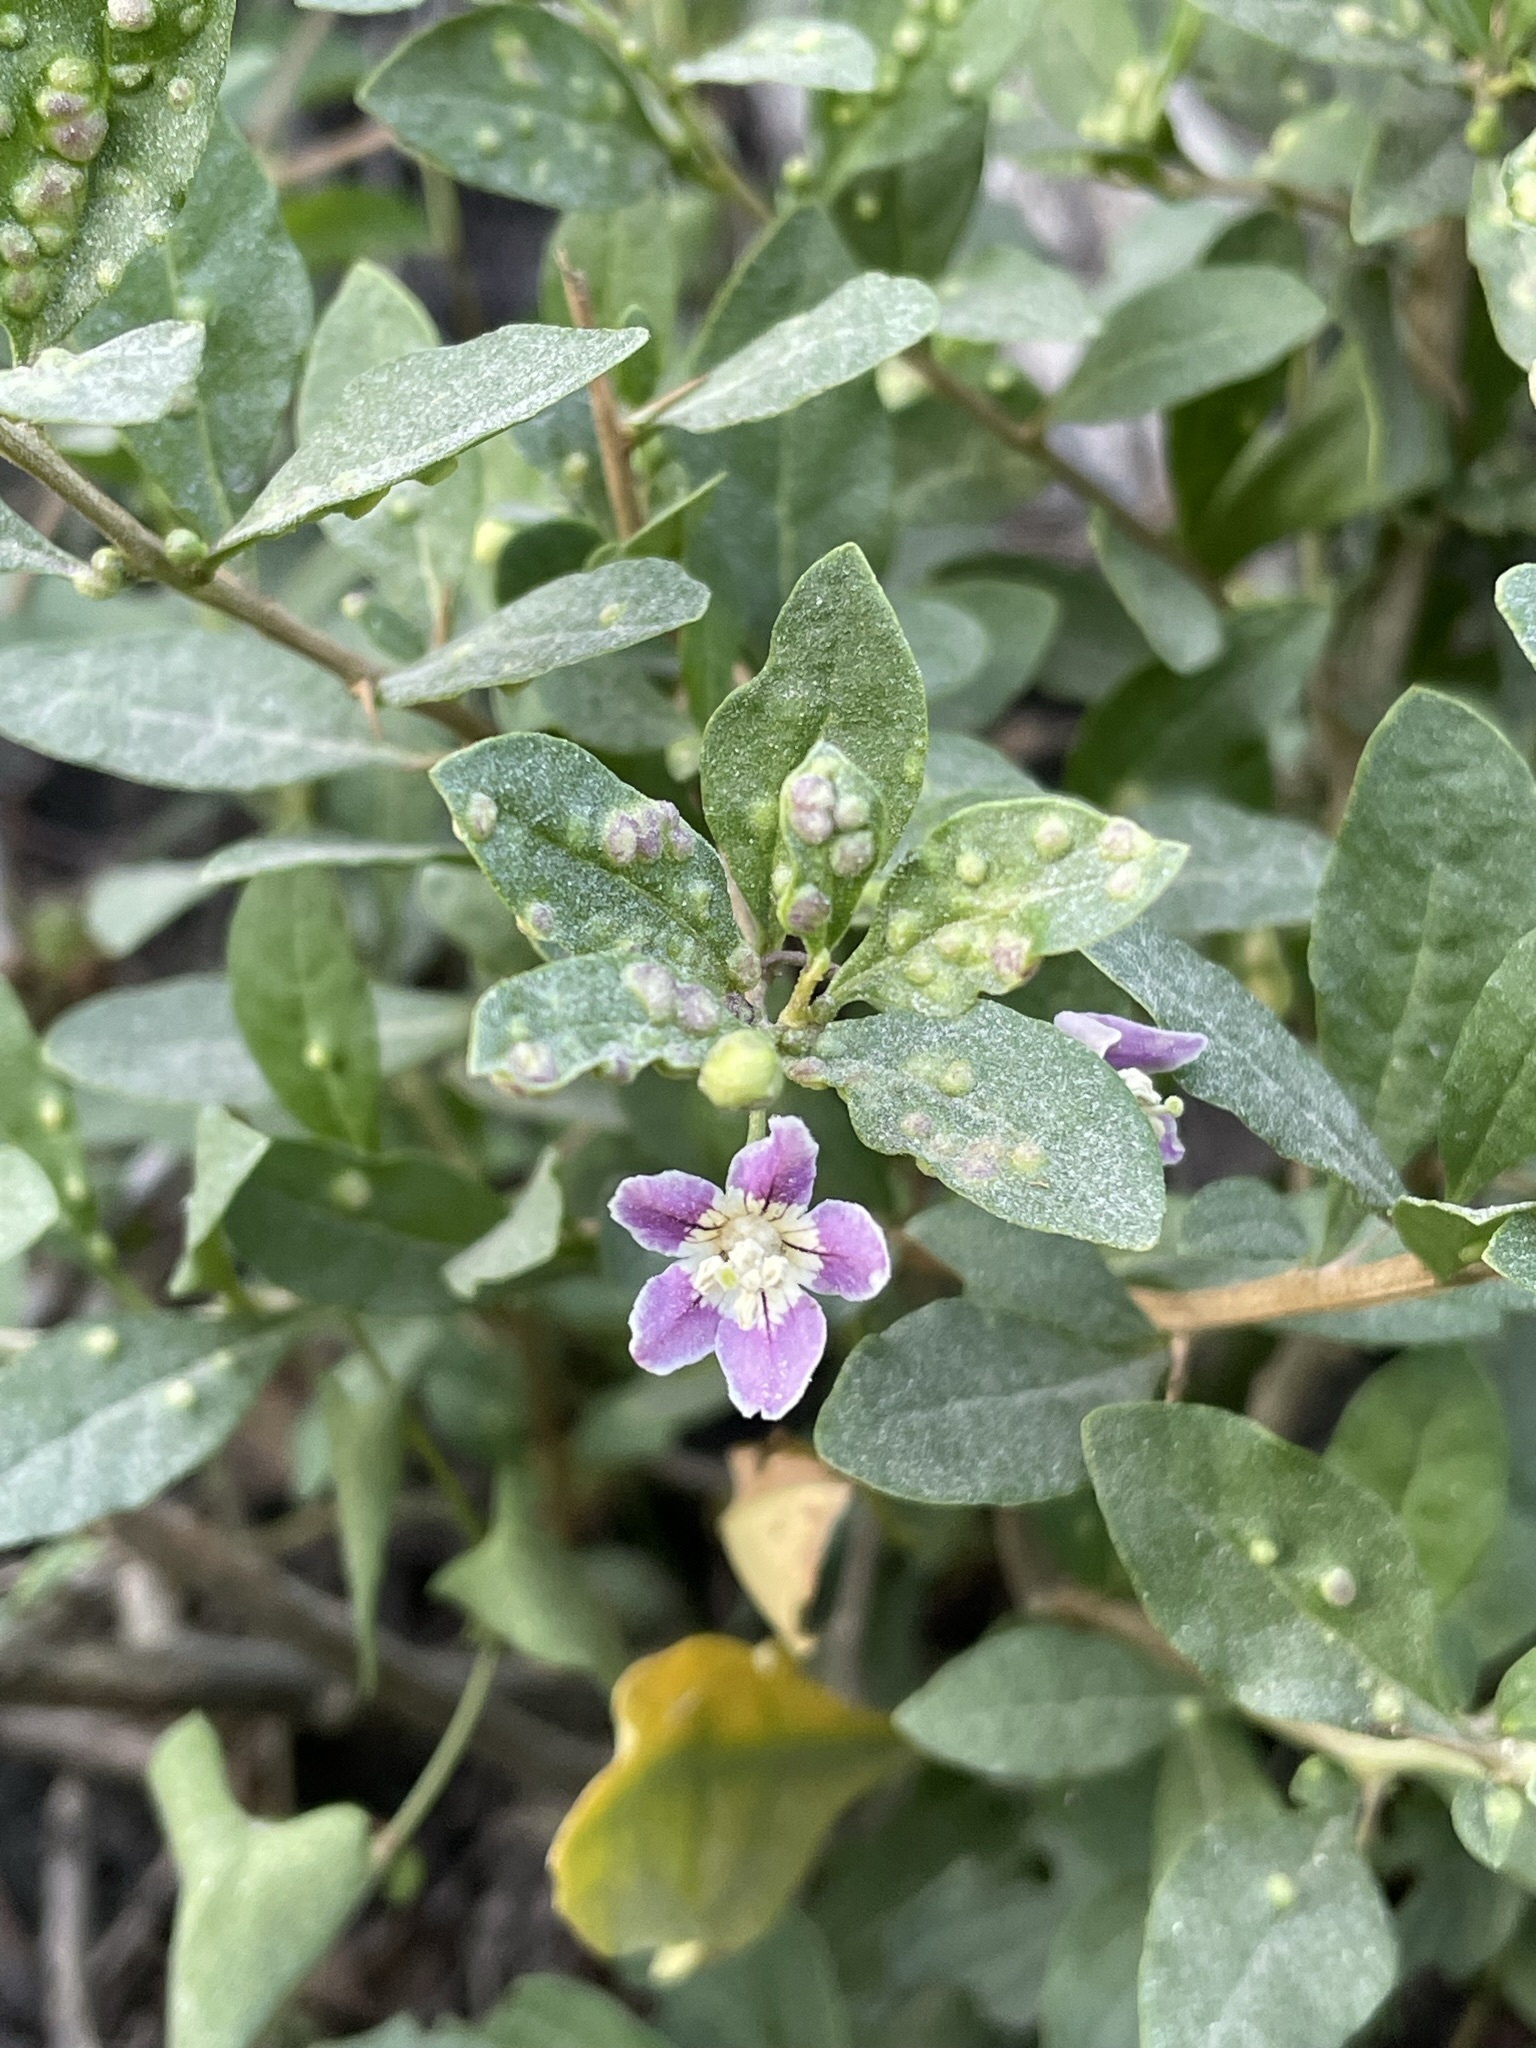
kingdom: Plantae
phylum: Tracheophyta
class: Magnoliopsida
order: Solanales
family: Solanaceae
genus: Lycium
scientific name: Lycium barbarum
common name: Duke of argyll's teaplant
